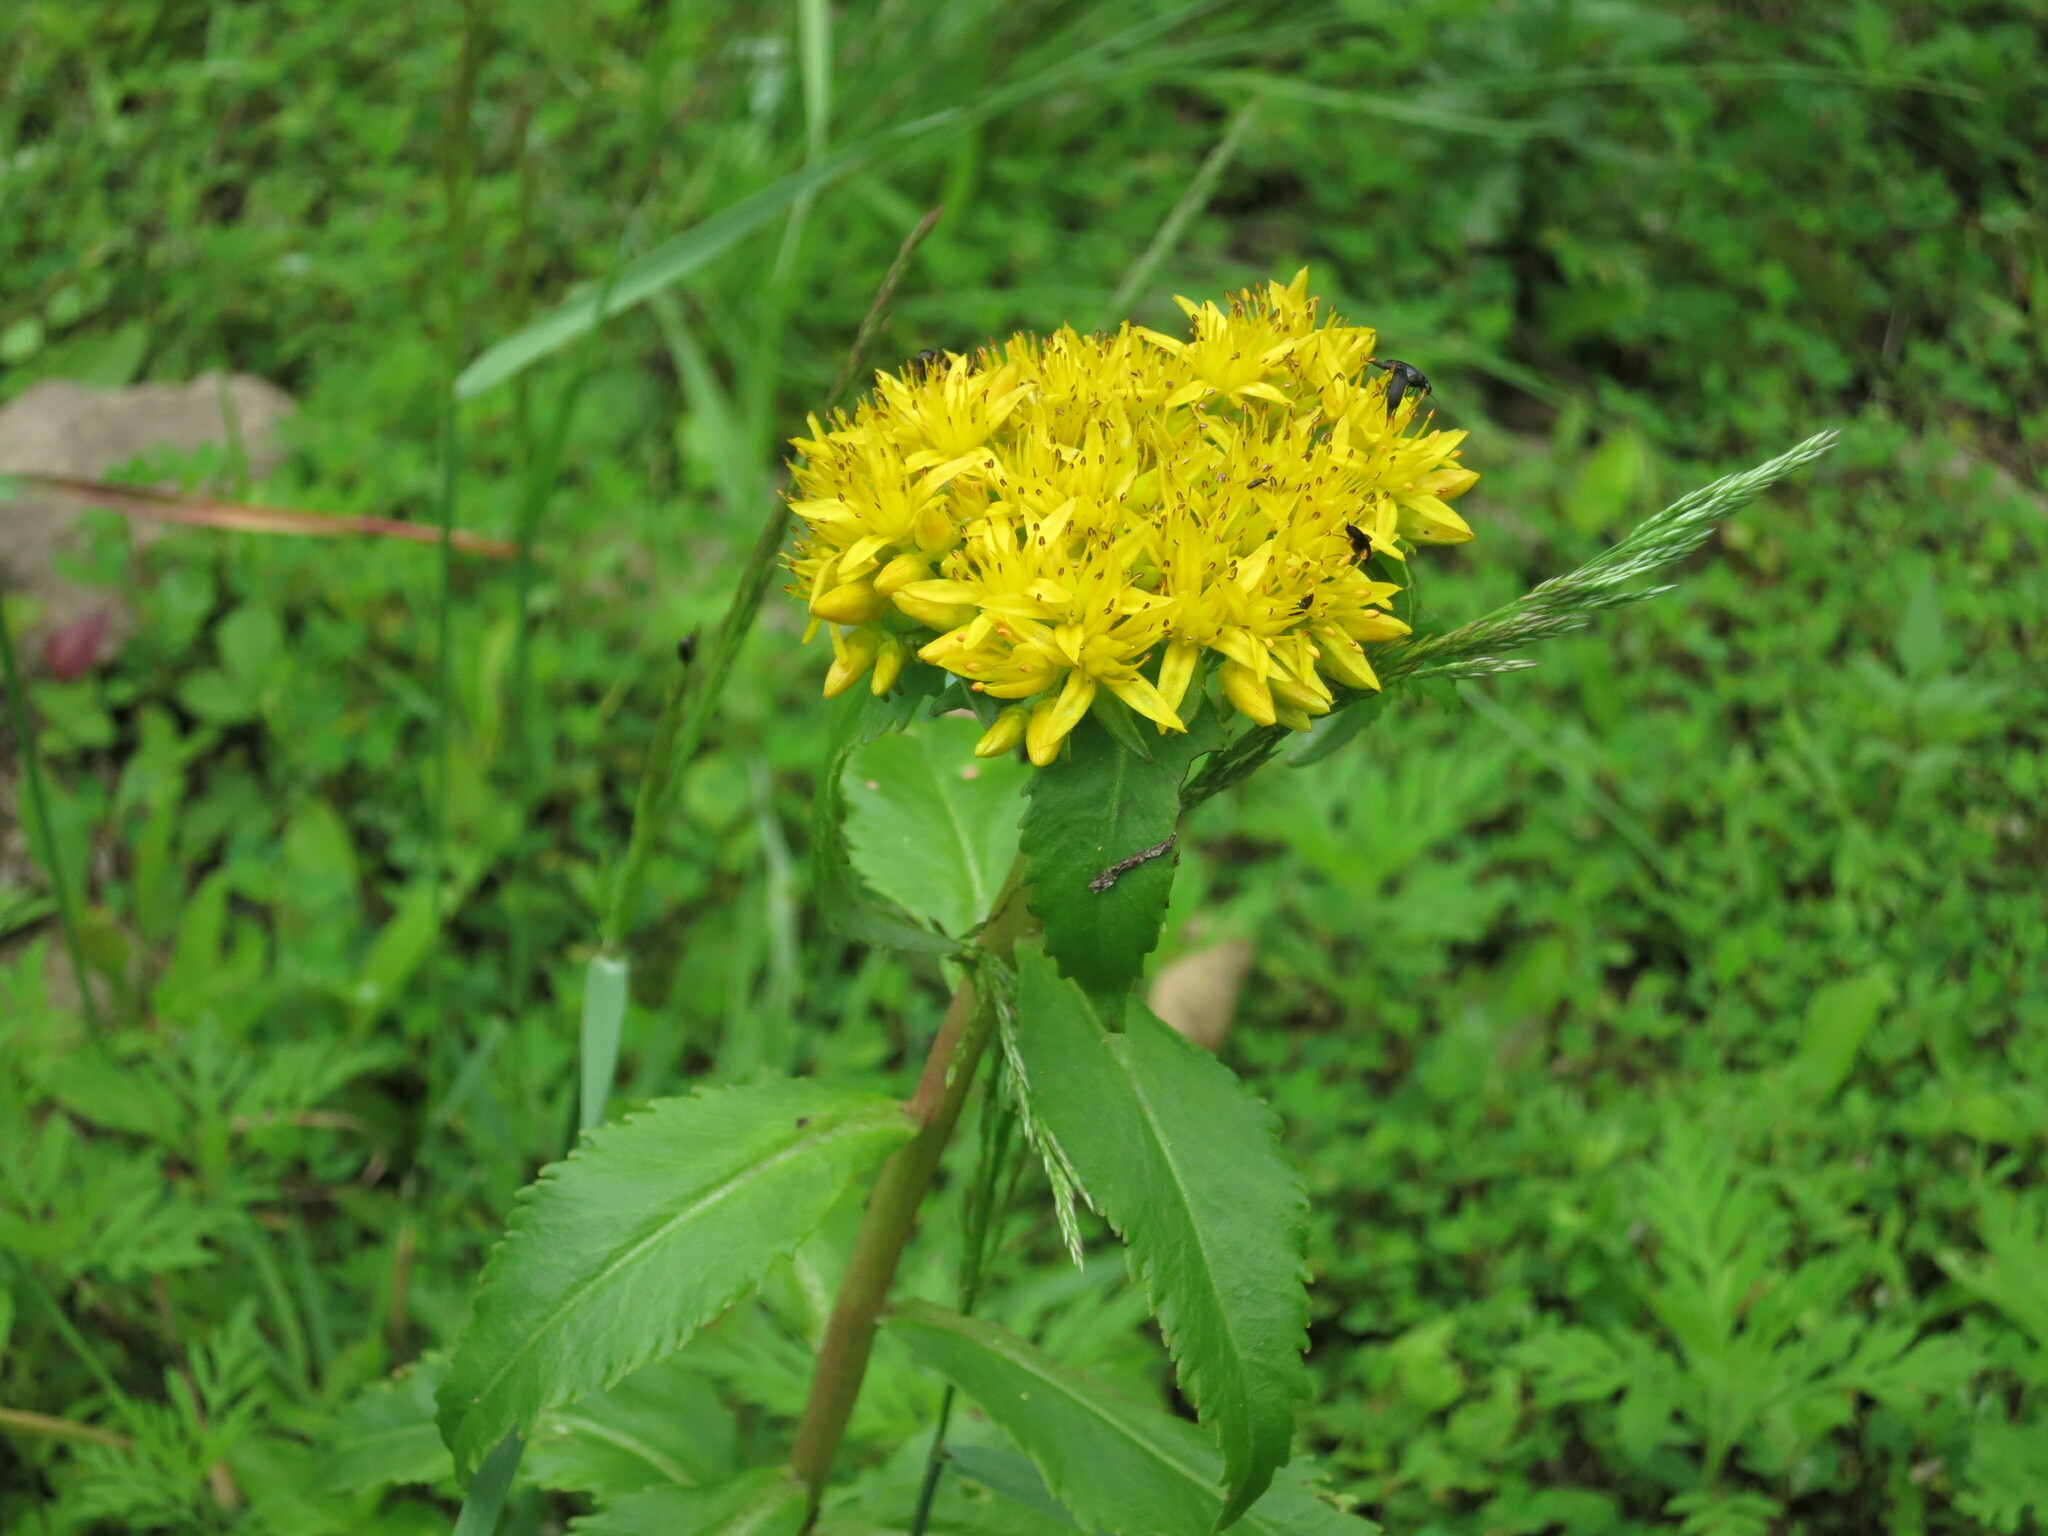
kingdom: Plantae
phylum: Tracheophyta
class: Magnoliopsida
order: Saxifragales
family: Crassulaceae
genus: Phedimus
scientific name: Phedimus aizoon
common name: Orpin aizoon
